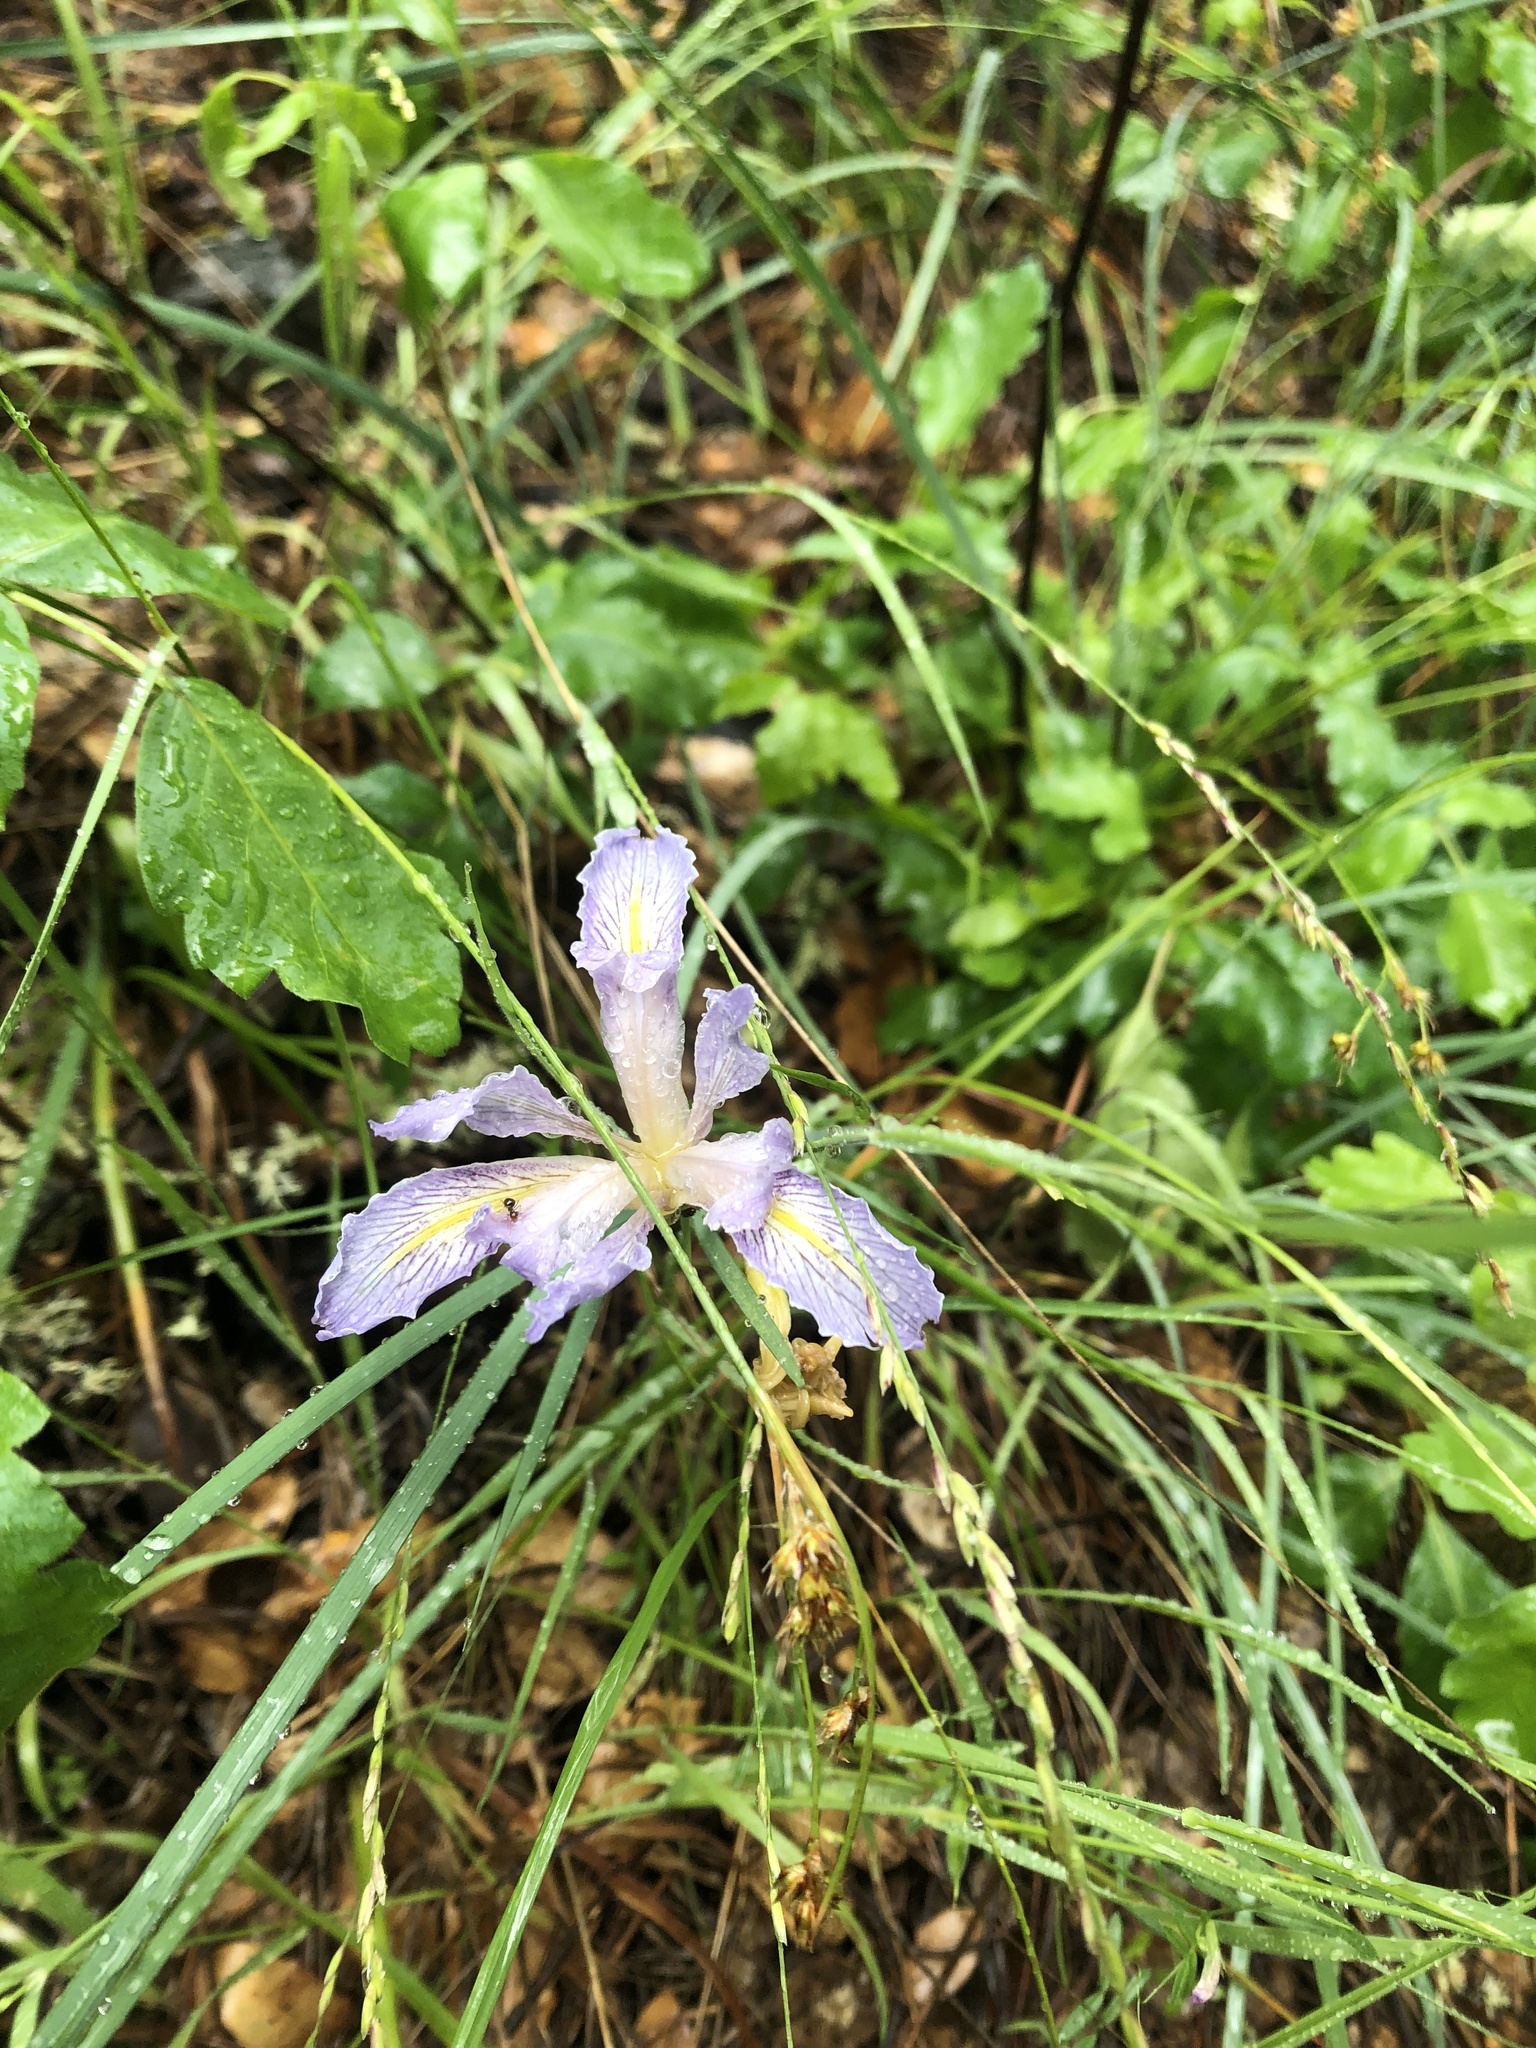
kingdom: Plantae
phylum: Tracheophyta
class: Liliopsida
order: Asparagales
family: Iridaceae
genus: Iris
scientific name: Iris macrosiphon
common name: Ground iris
